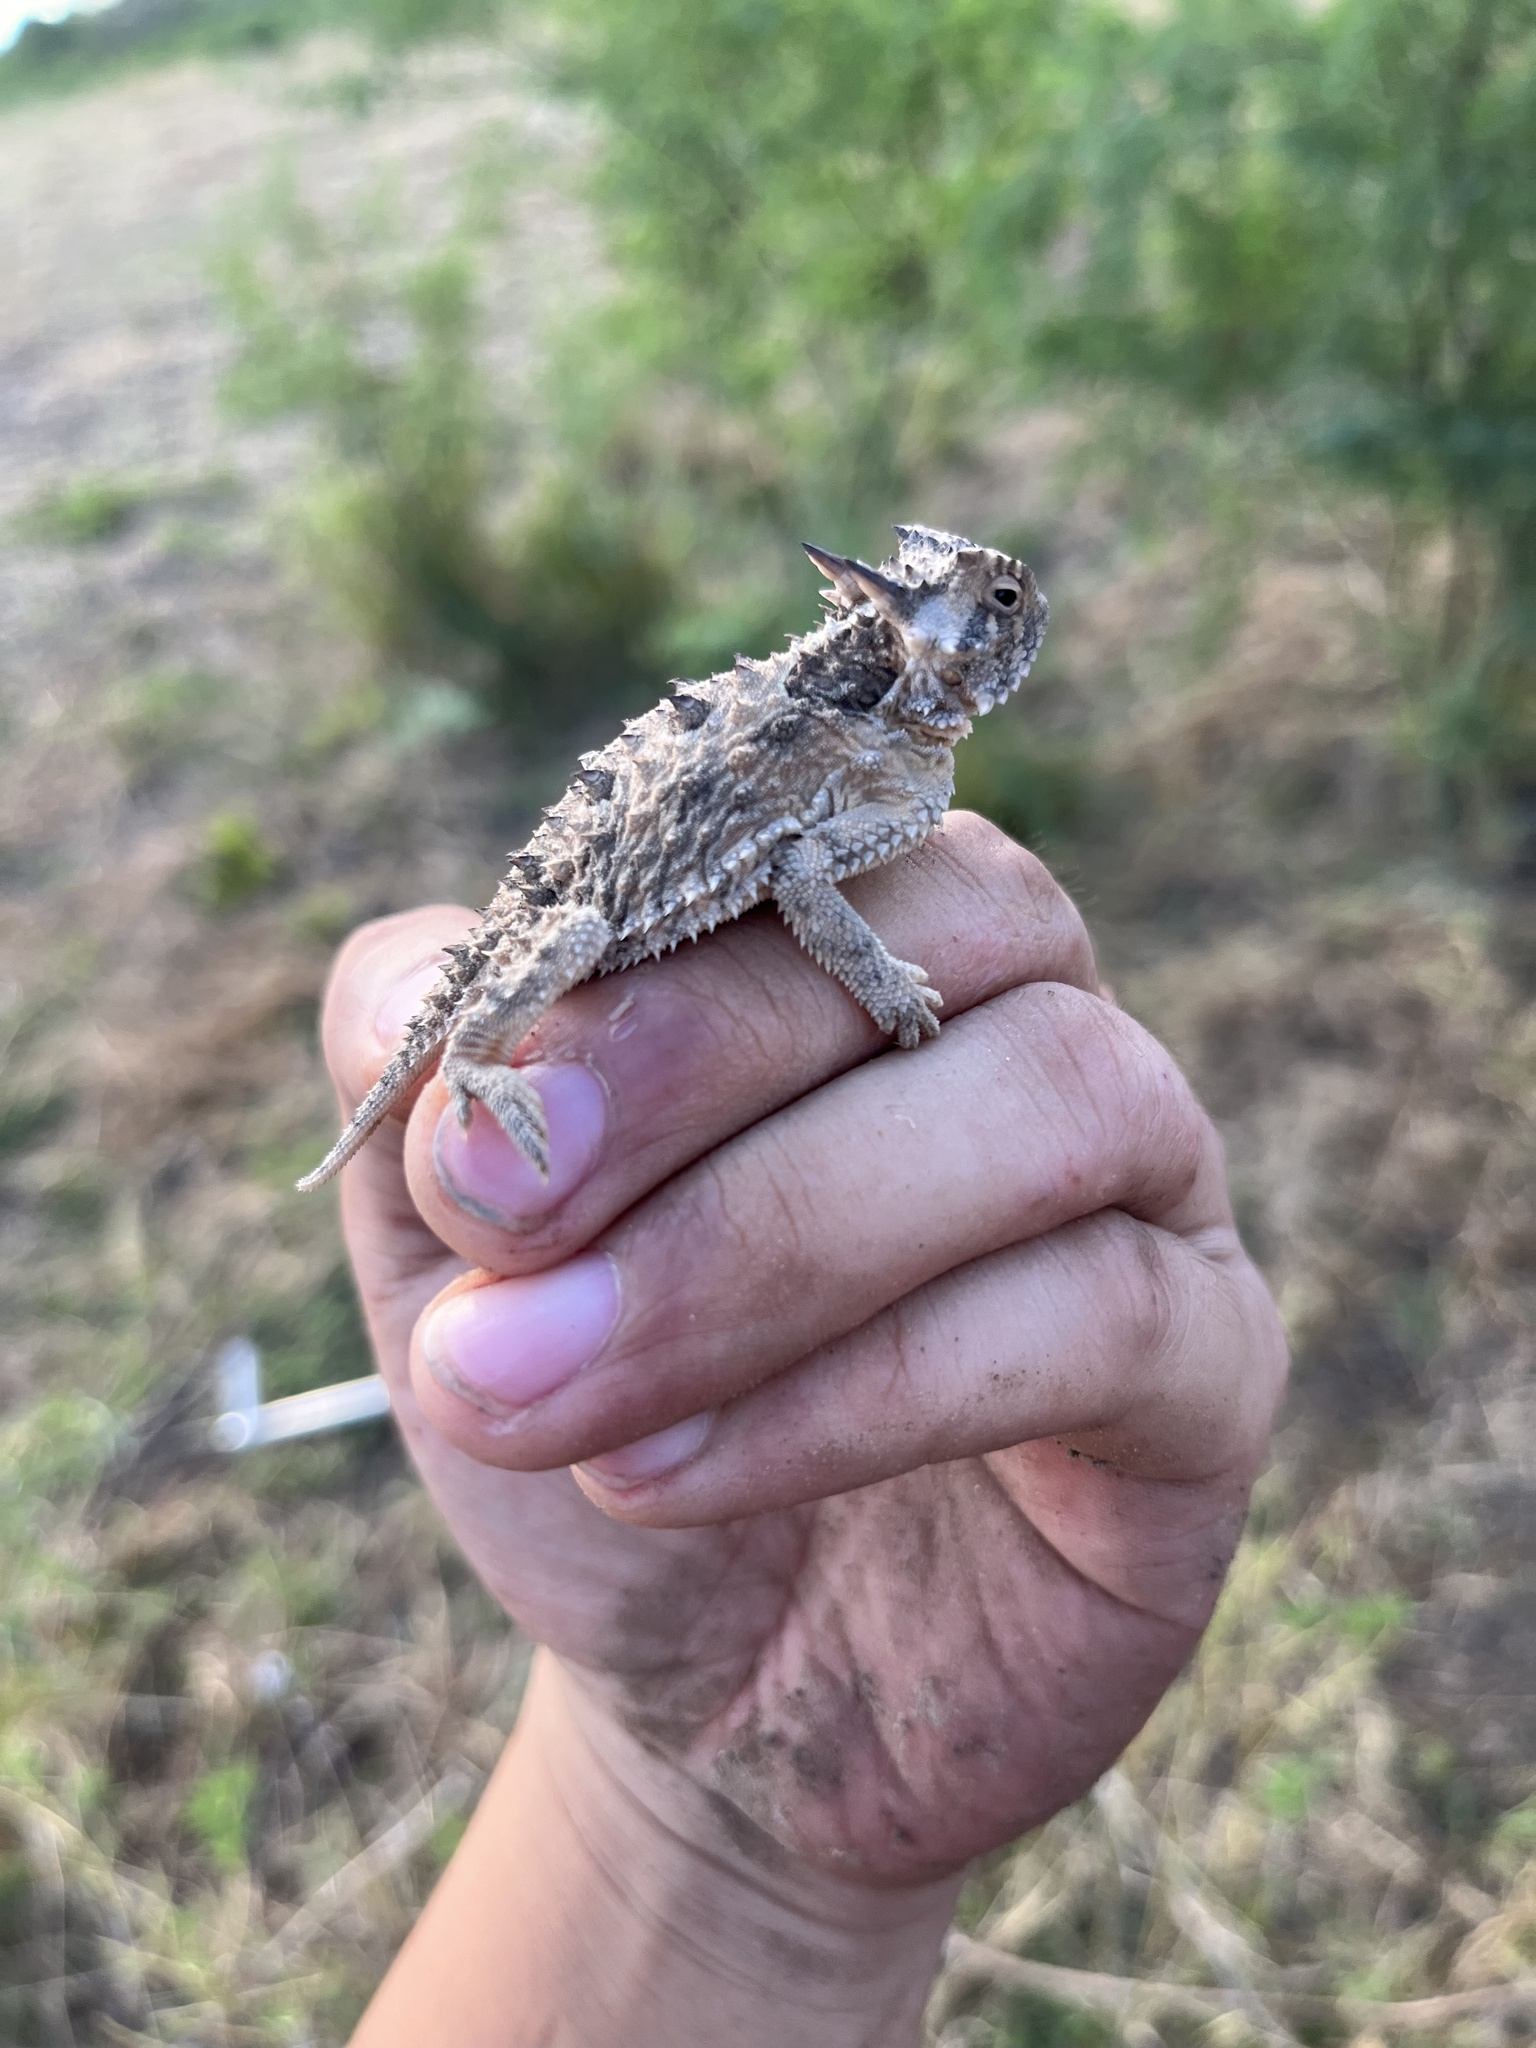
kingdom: Animalia
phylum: Chordata
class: Squamata
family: Phrynosomatidae
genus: Phrynosoma
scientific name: Phrynosoma cornutum
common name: Texas horned lizard
